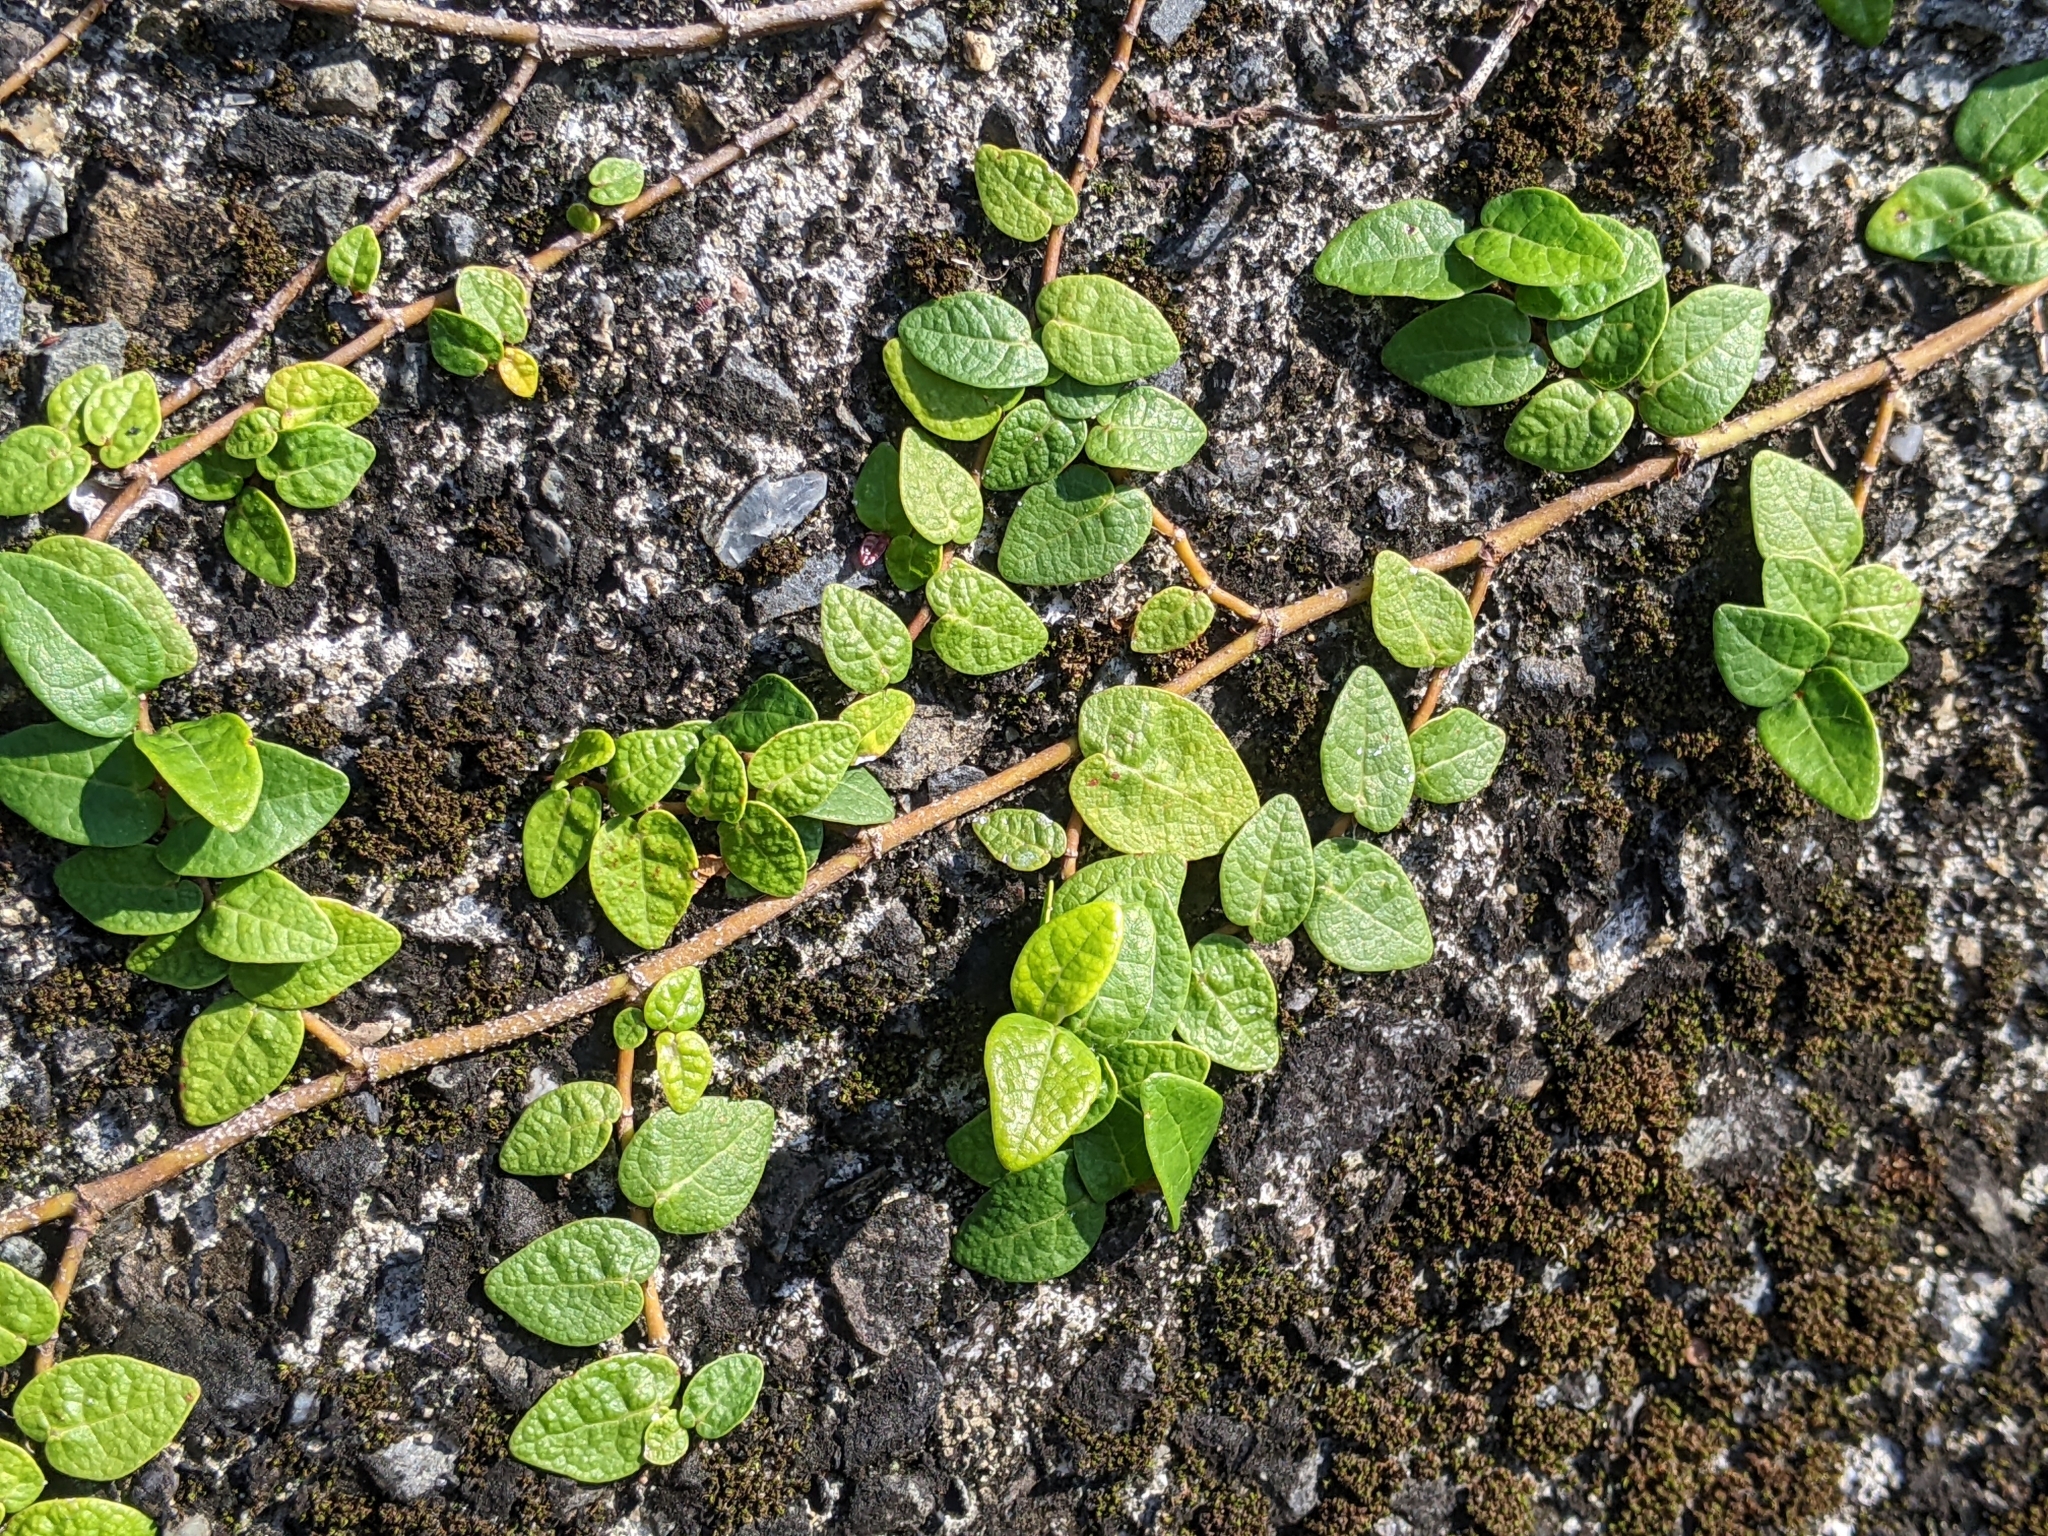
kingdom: Plantae
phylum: Tracheophyta
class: Magnoliopsida
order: Rosales
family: Moraceae
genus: Ficus
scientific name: Ficus pumila
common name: Climbingfig
